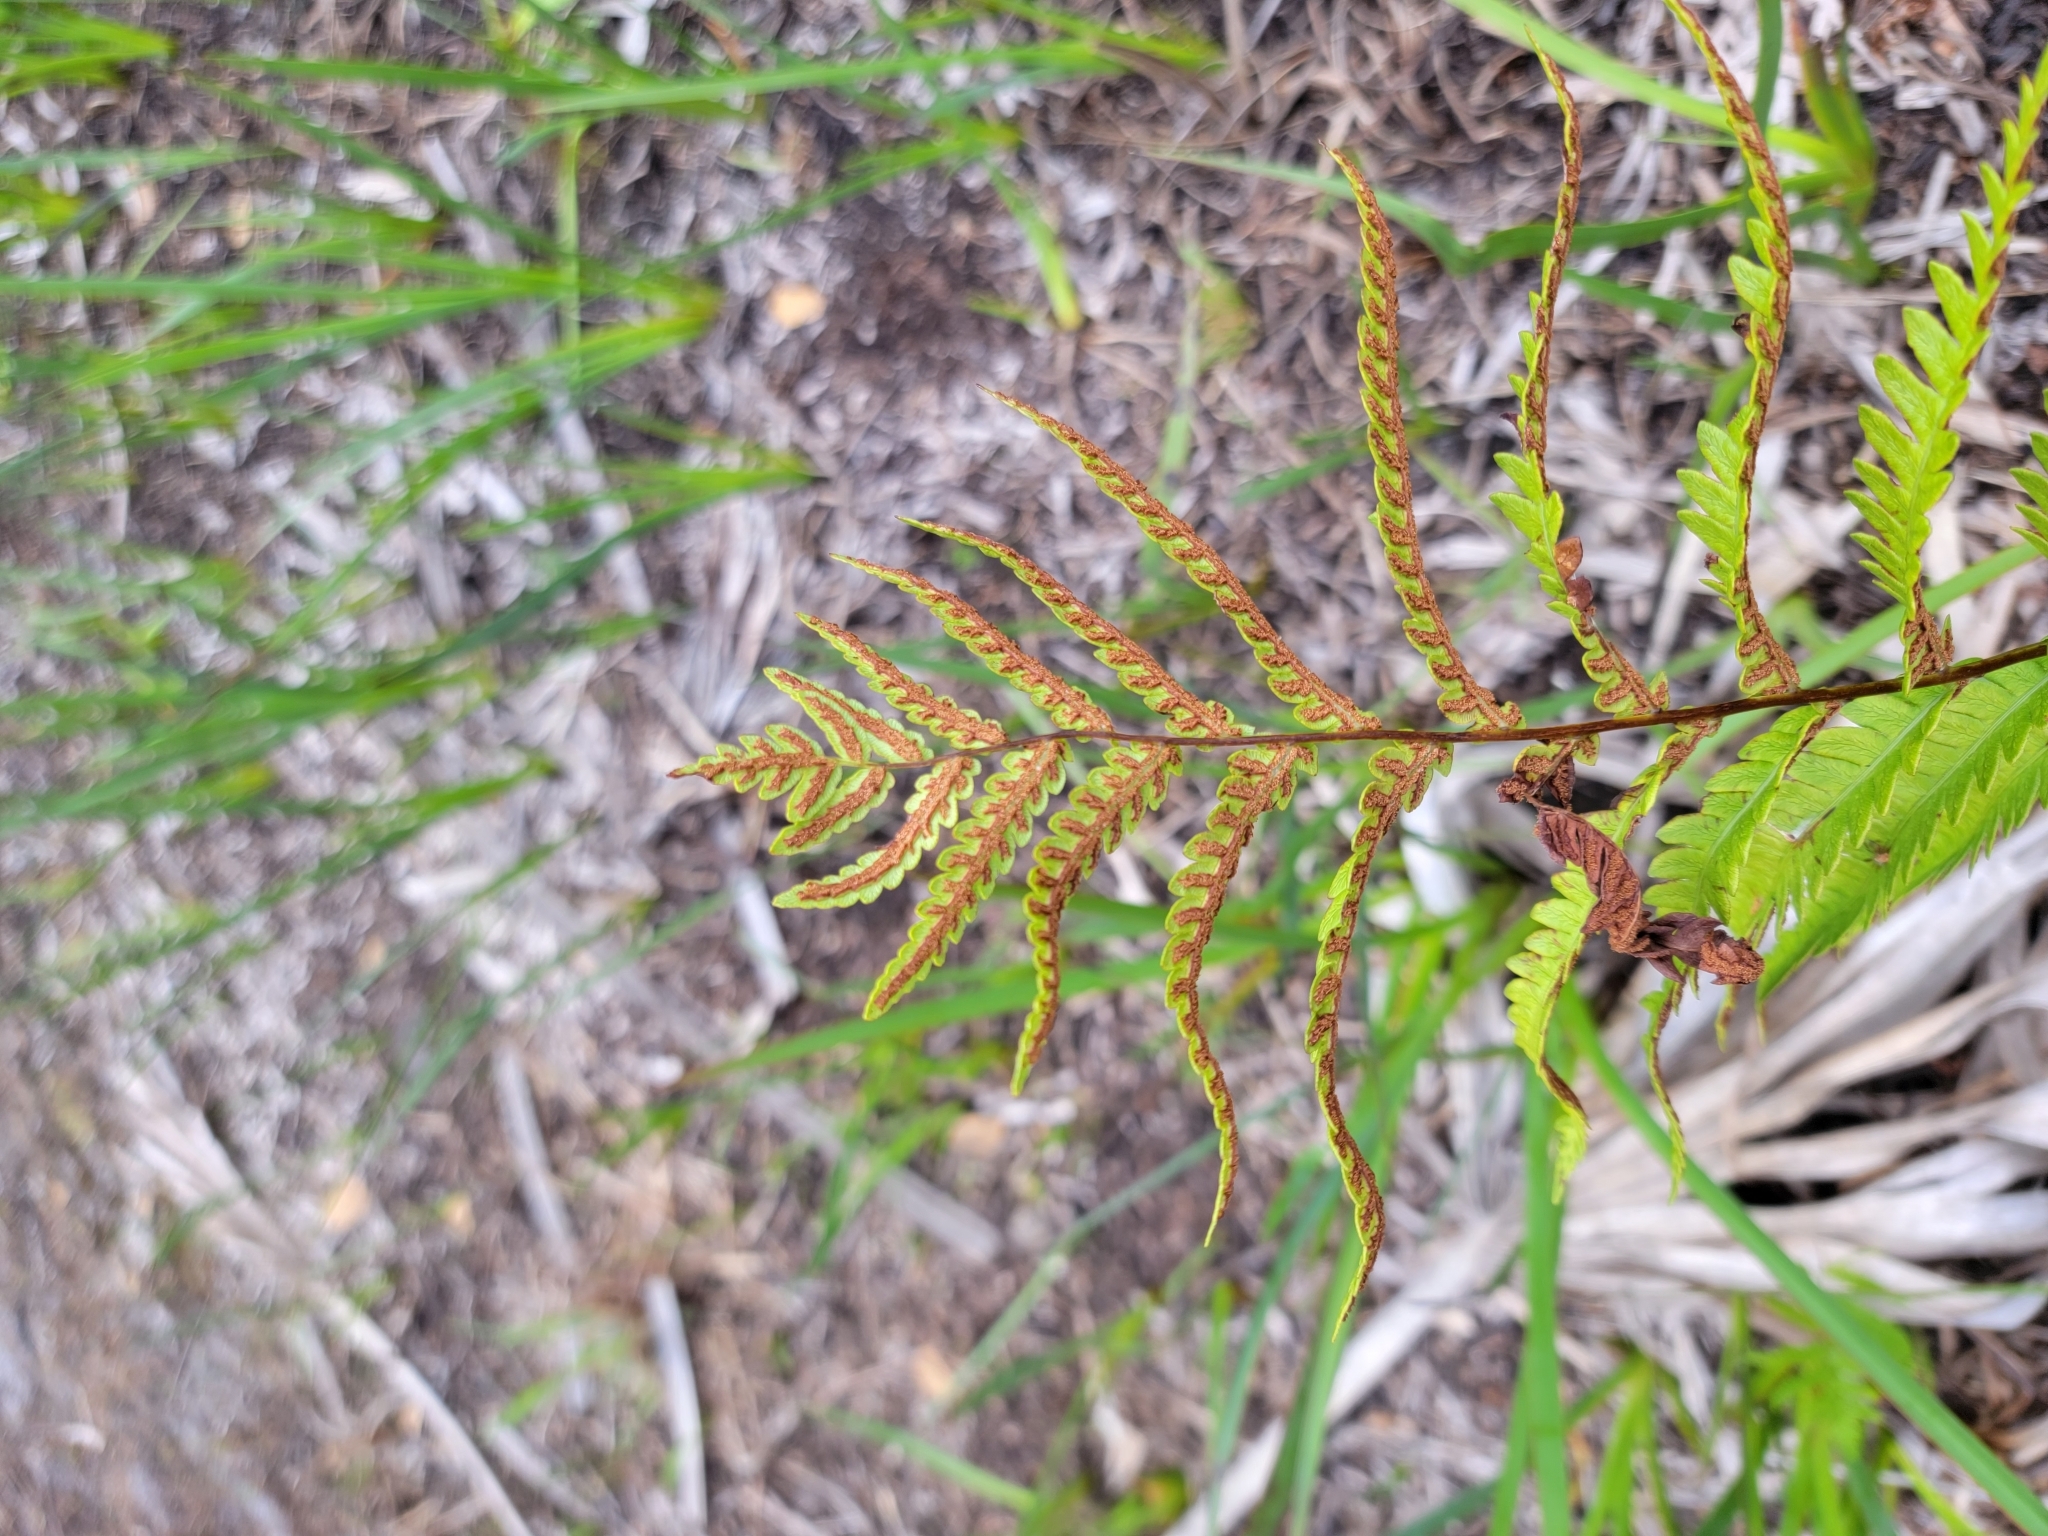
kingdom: Plantae
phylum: Tracheophyta
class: Polypodiopsida
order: Polypodiales
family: Blechnaceae
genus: Anchistea
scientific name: Anchistea virginica
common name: Virginia chain fern
